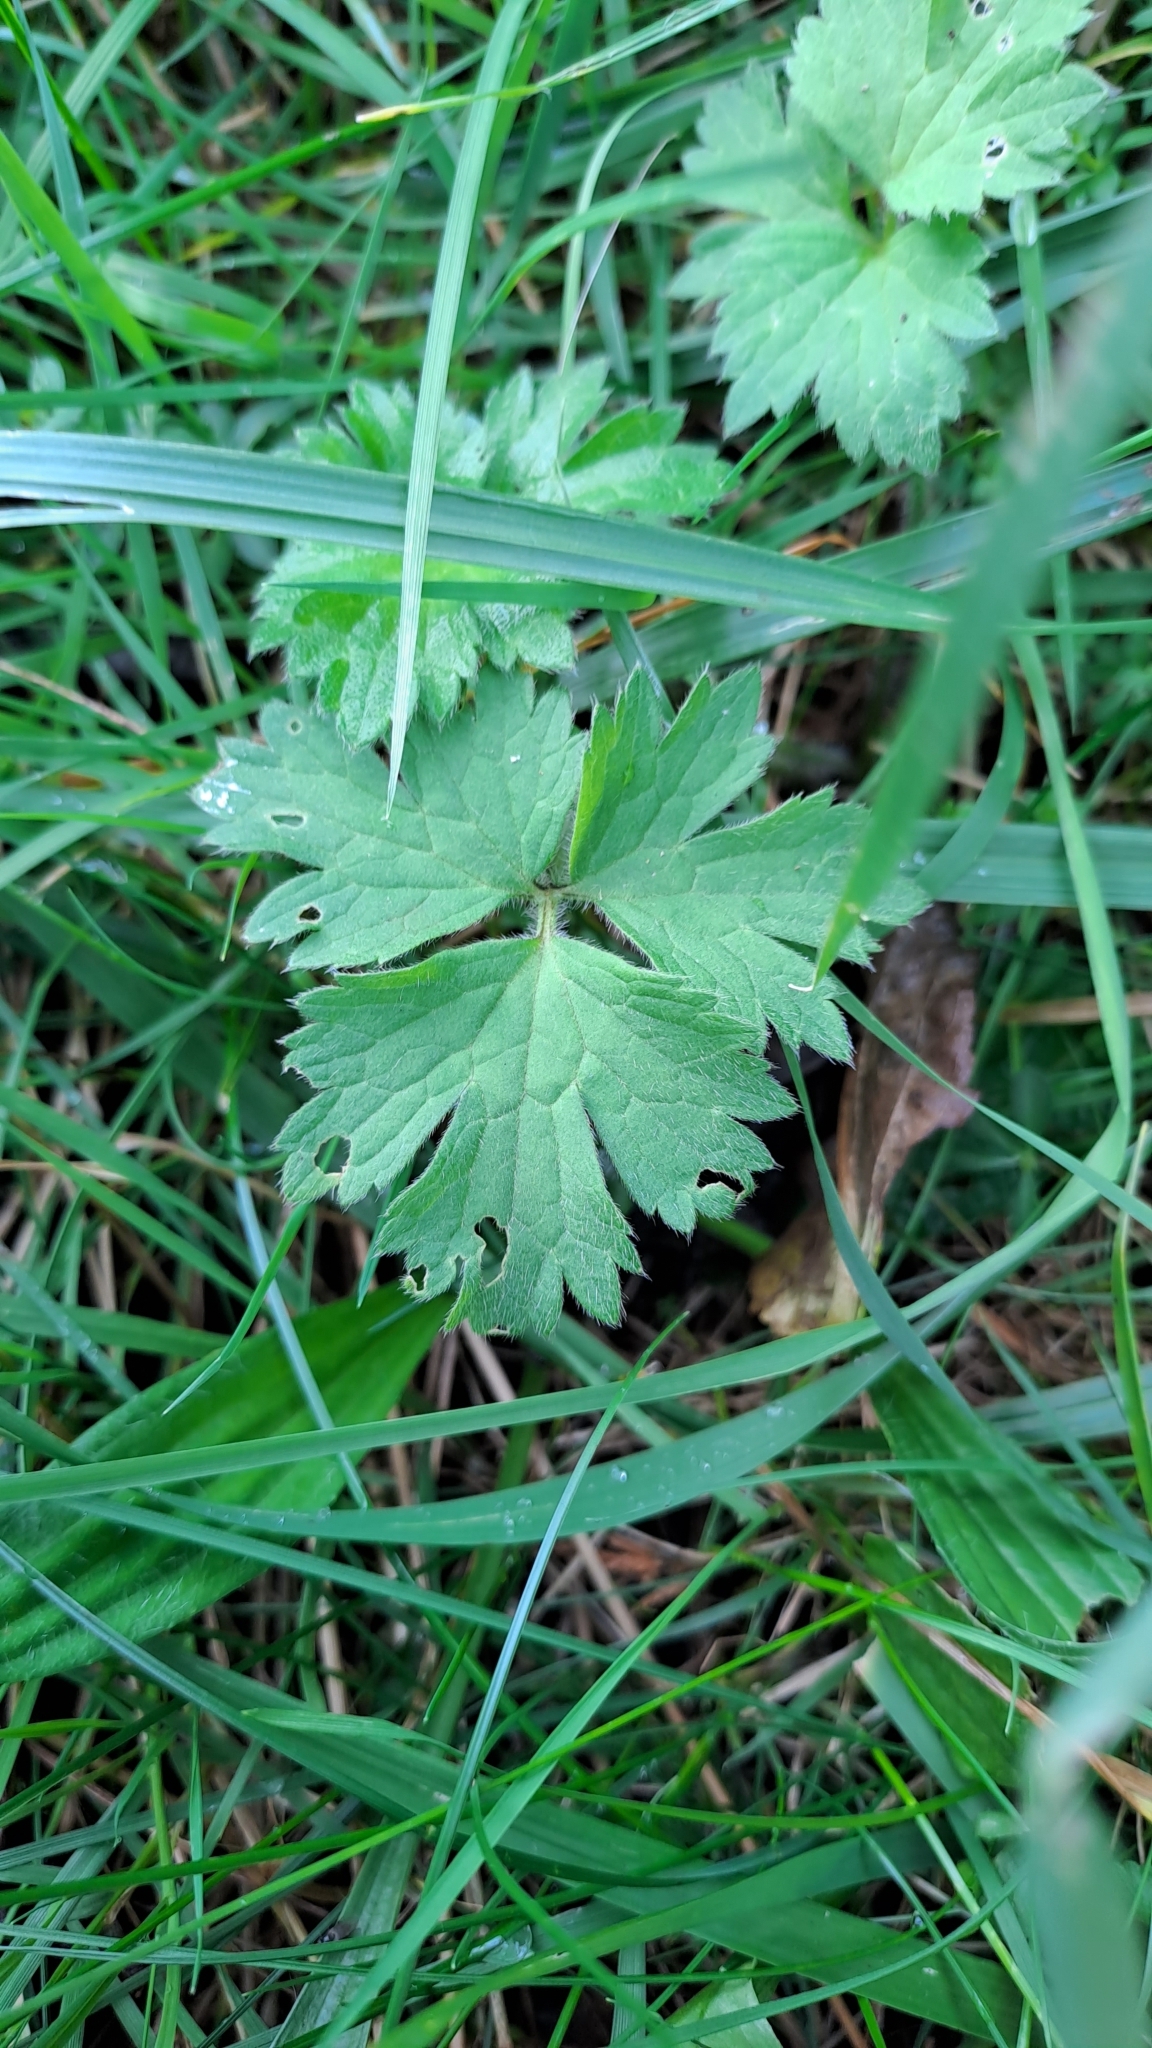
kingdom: Plantae
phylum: Tracheophyta
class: Magnoliopsida
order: Ranunculales
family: Ranunculaceae
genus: Ranunculus
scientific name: Ranunculus repens
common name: Creeping buttercup
